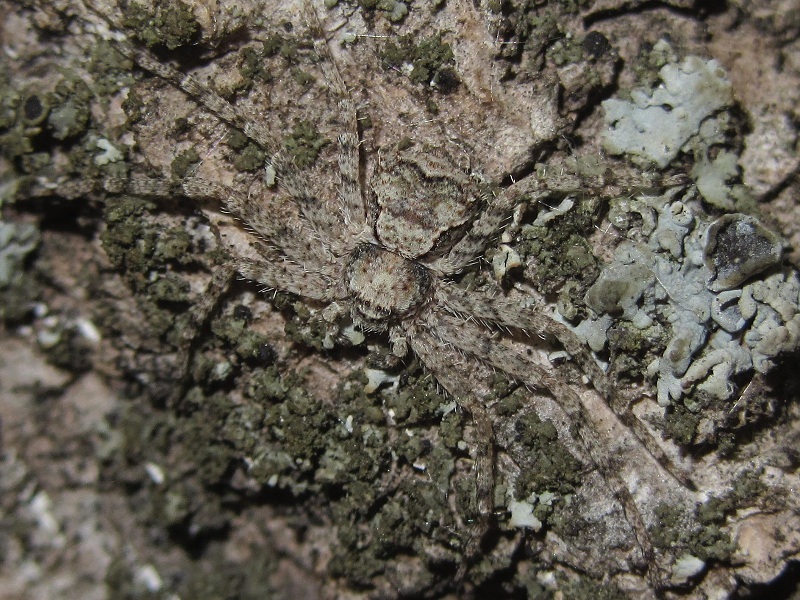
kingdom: Animalia
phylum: Arthropoda
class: Arachnida
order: Araneae
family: Philodromidae
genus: Philodromus
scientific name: Philodromus poecilus
